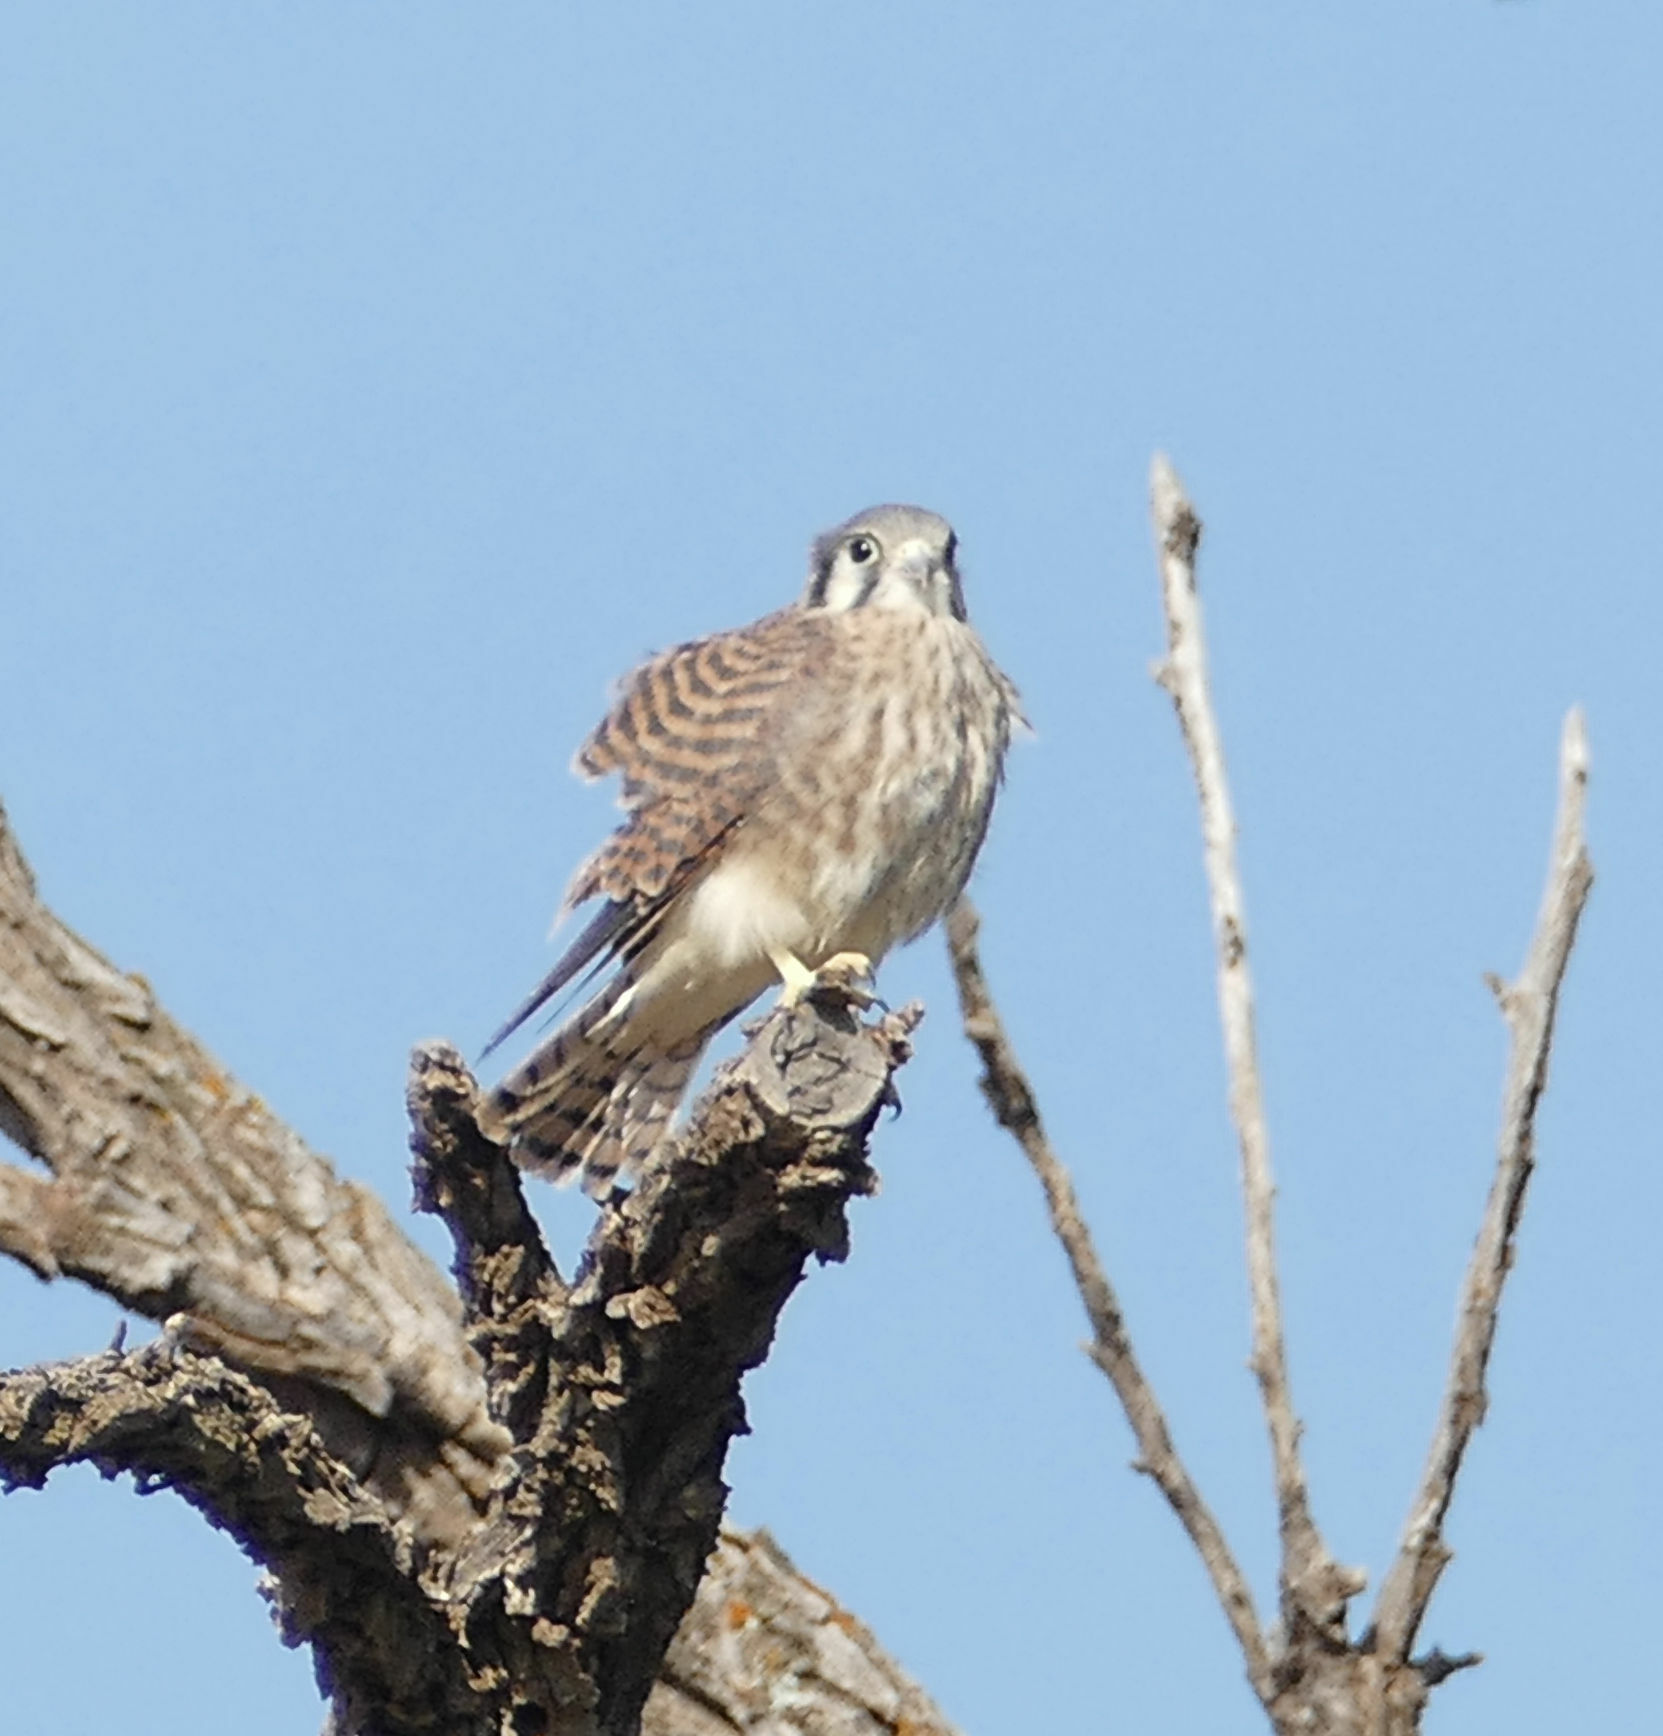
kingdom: Animalia
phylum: Chordata
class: Aves
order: Falconiformes
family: Falconidae
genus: Falco
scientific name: Falco sparverius
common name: American kestrel
